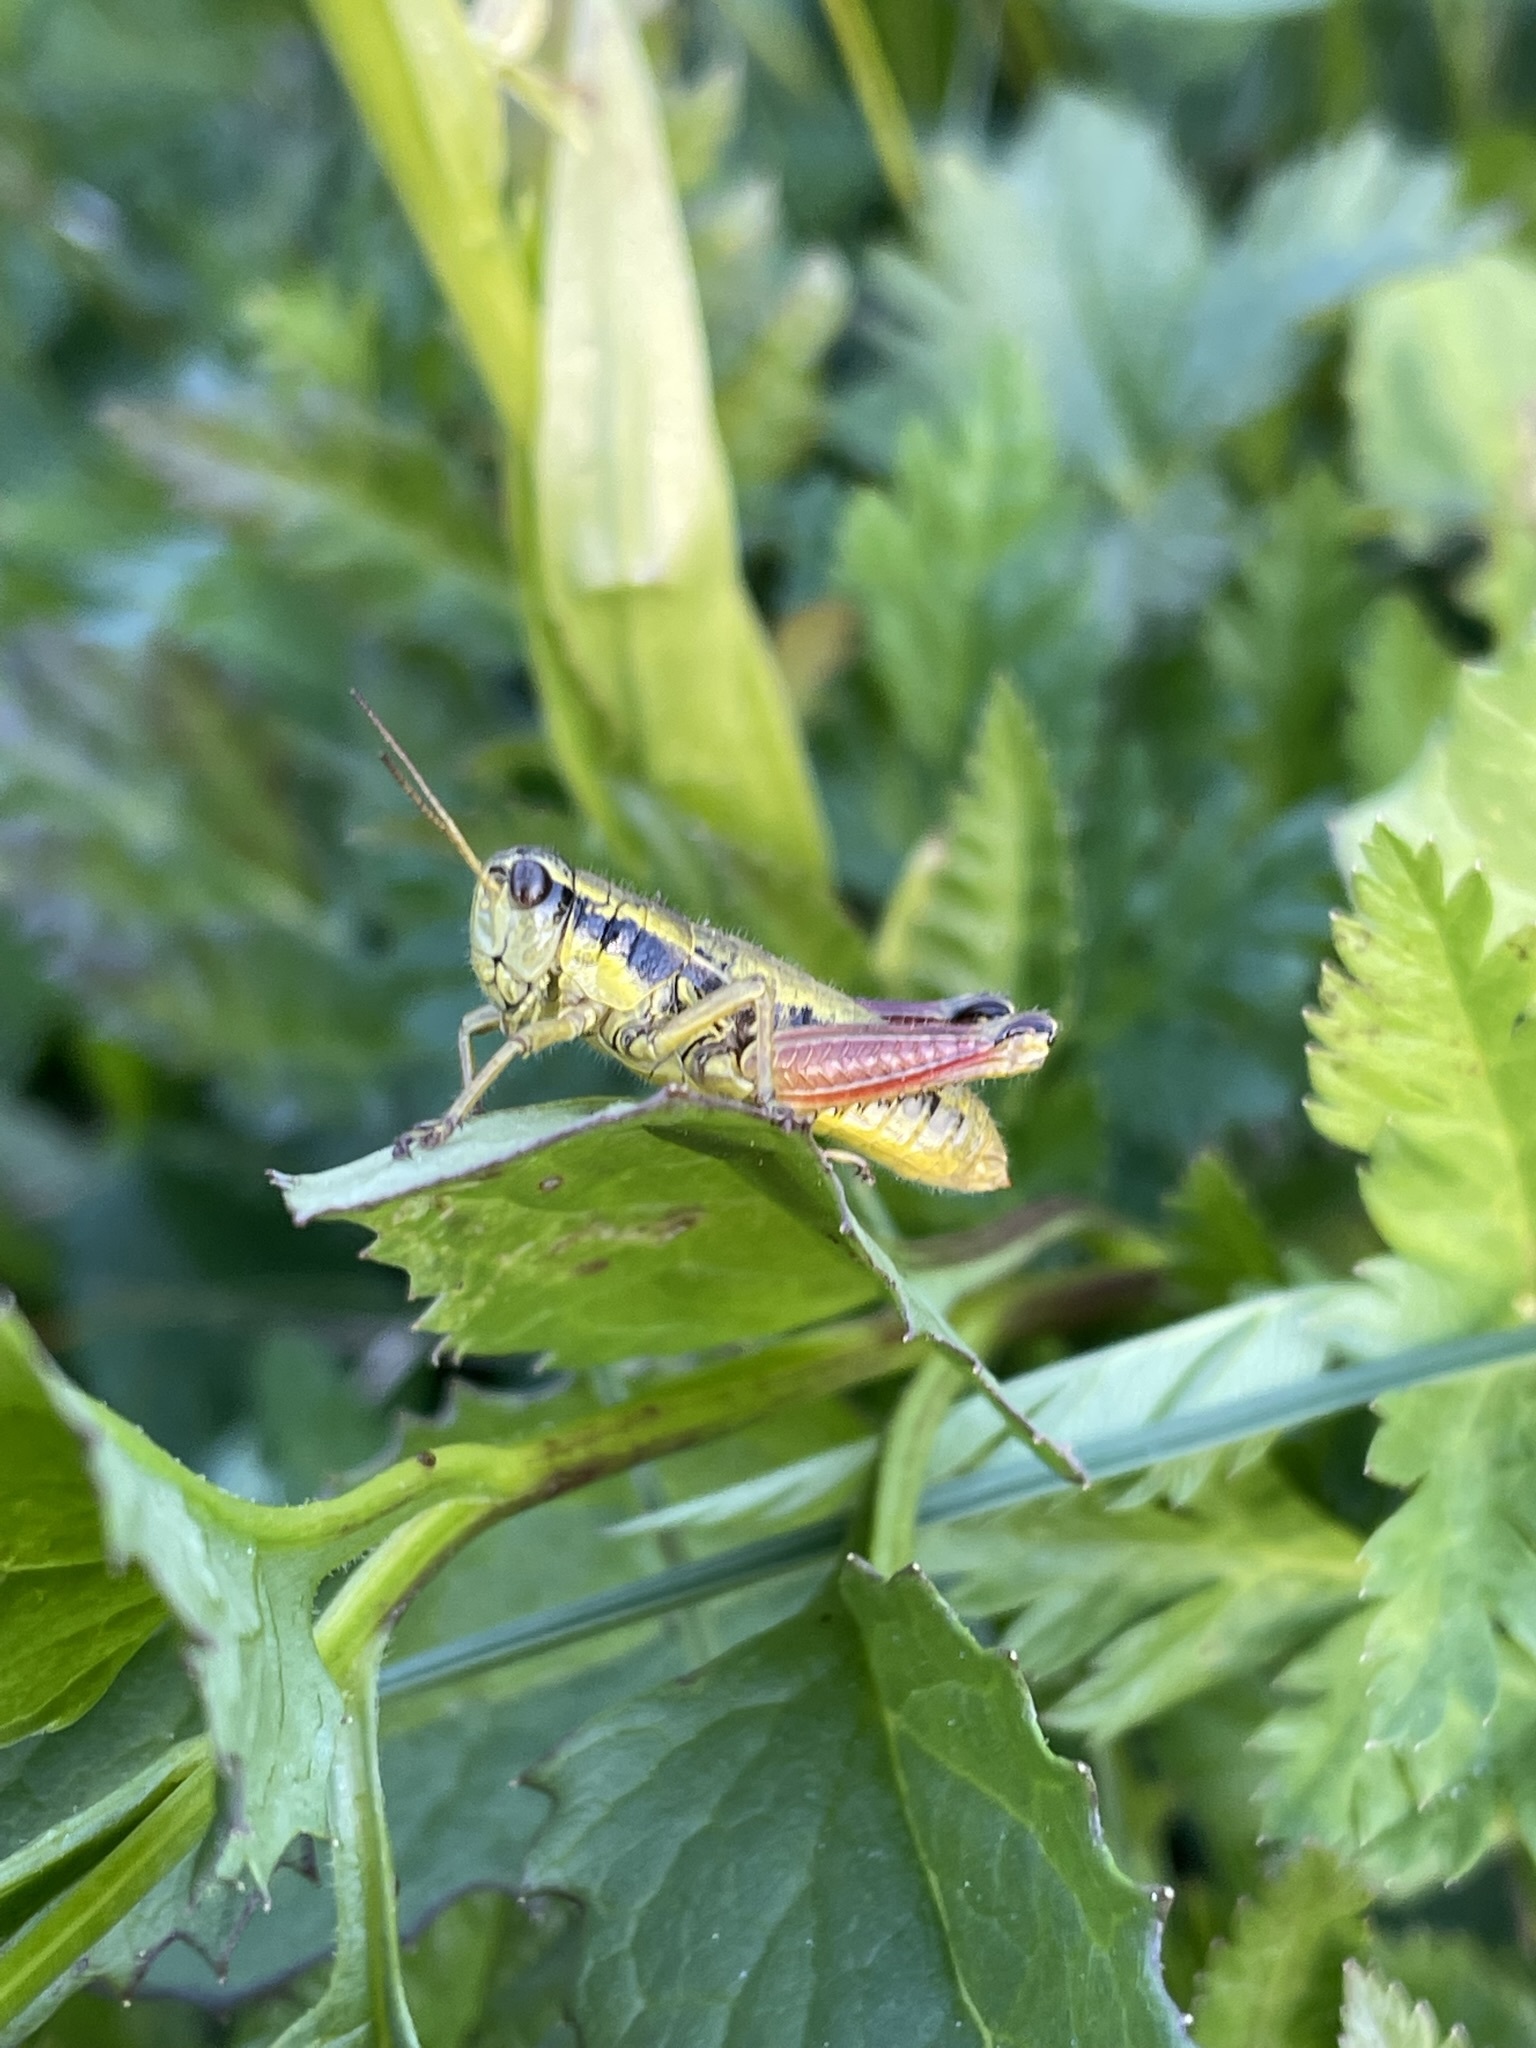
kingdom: Animalia
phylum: Arthropoda
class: Insecta
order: Orthoptera
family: Acrididae
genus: Prumnacris
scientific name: Prumnacris rainierensis
